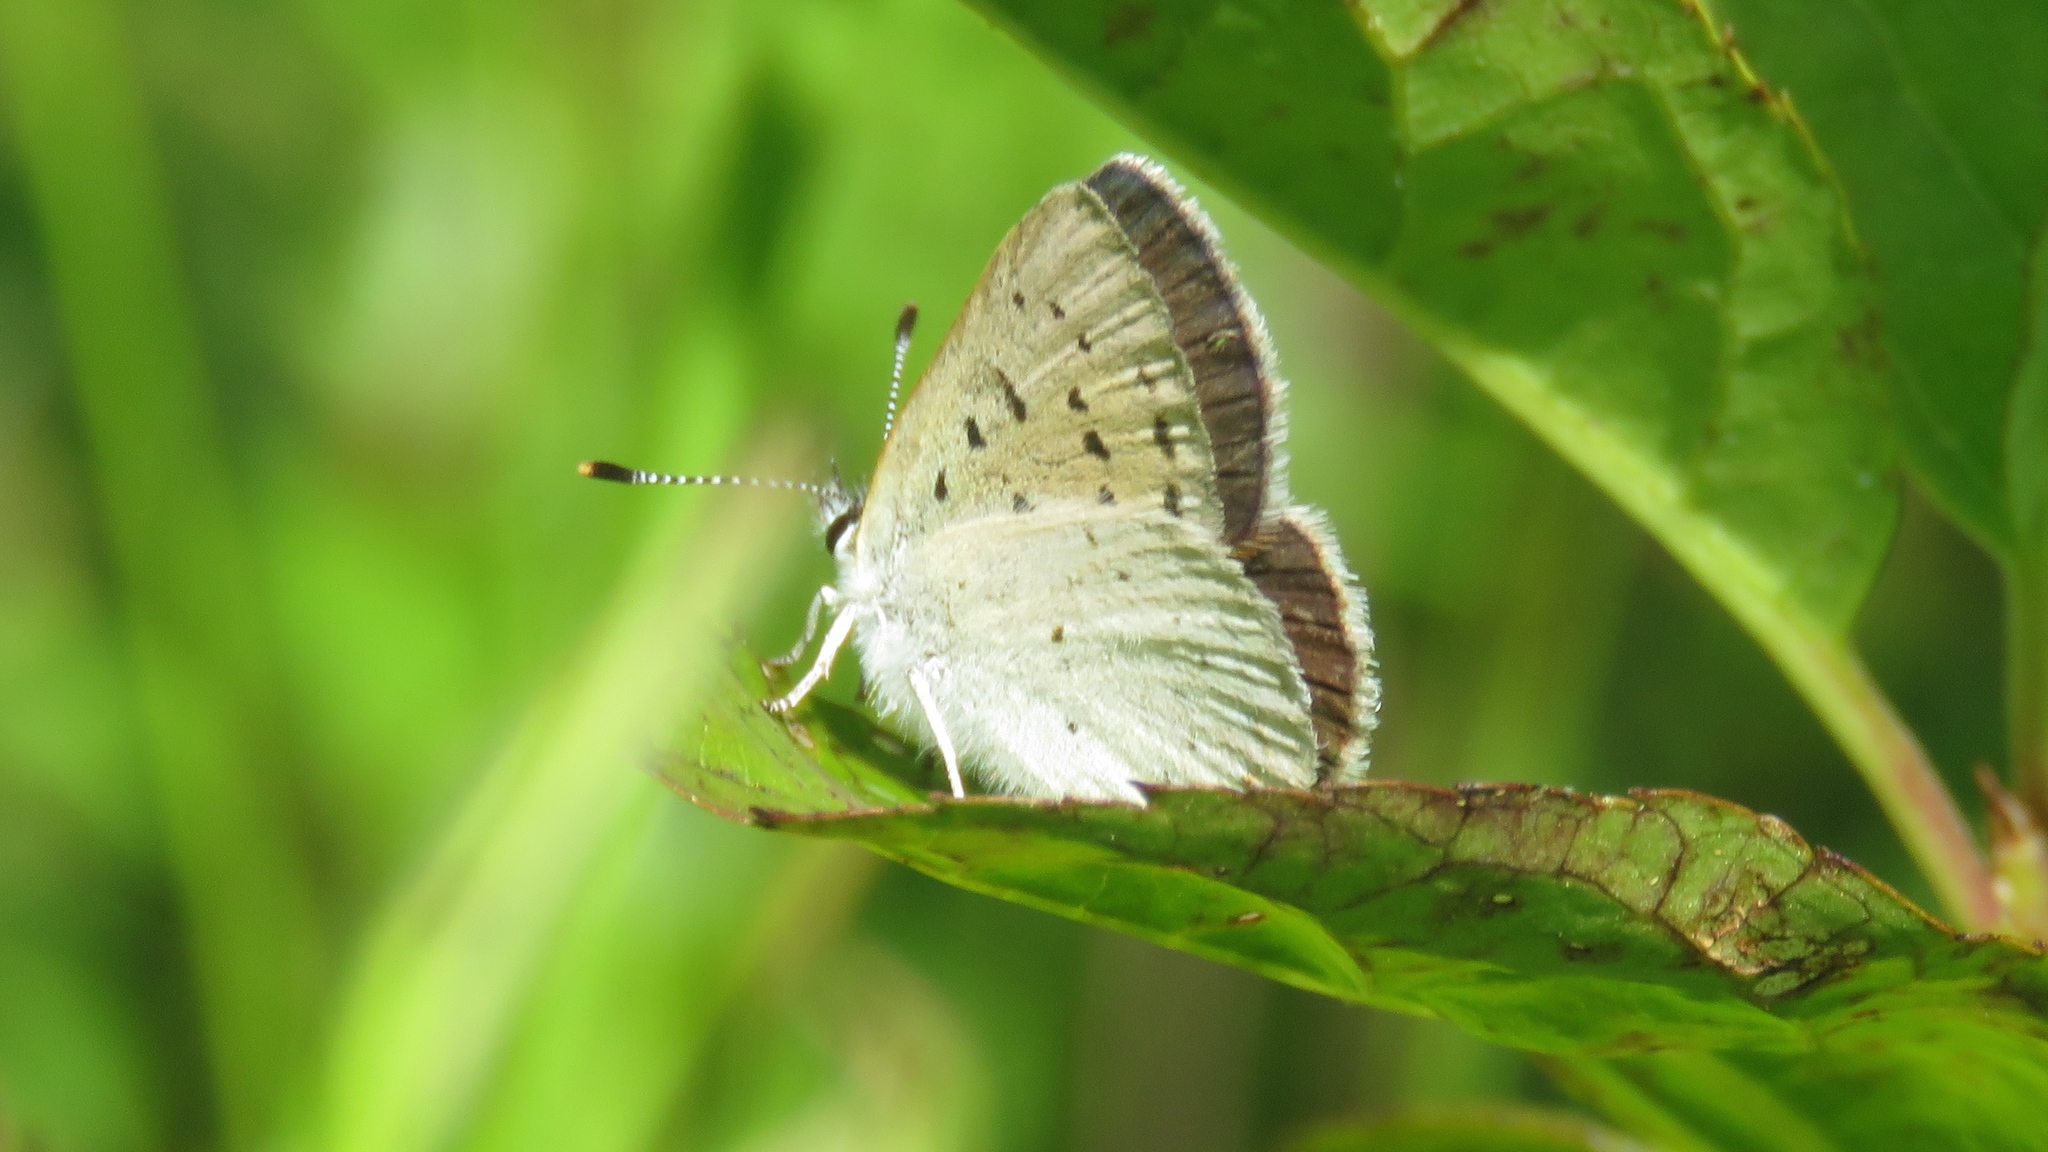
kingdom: Animalia
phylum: Arthropoda
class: Insecta
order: Lepidoptera
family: Lycaenidae
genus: Tharsalea
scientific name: Tharsalea epixanthe
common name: Bog copper
